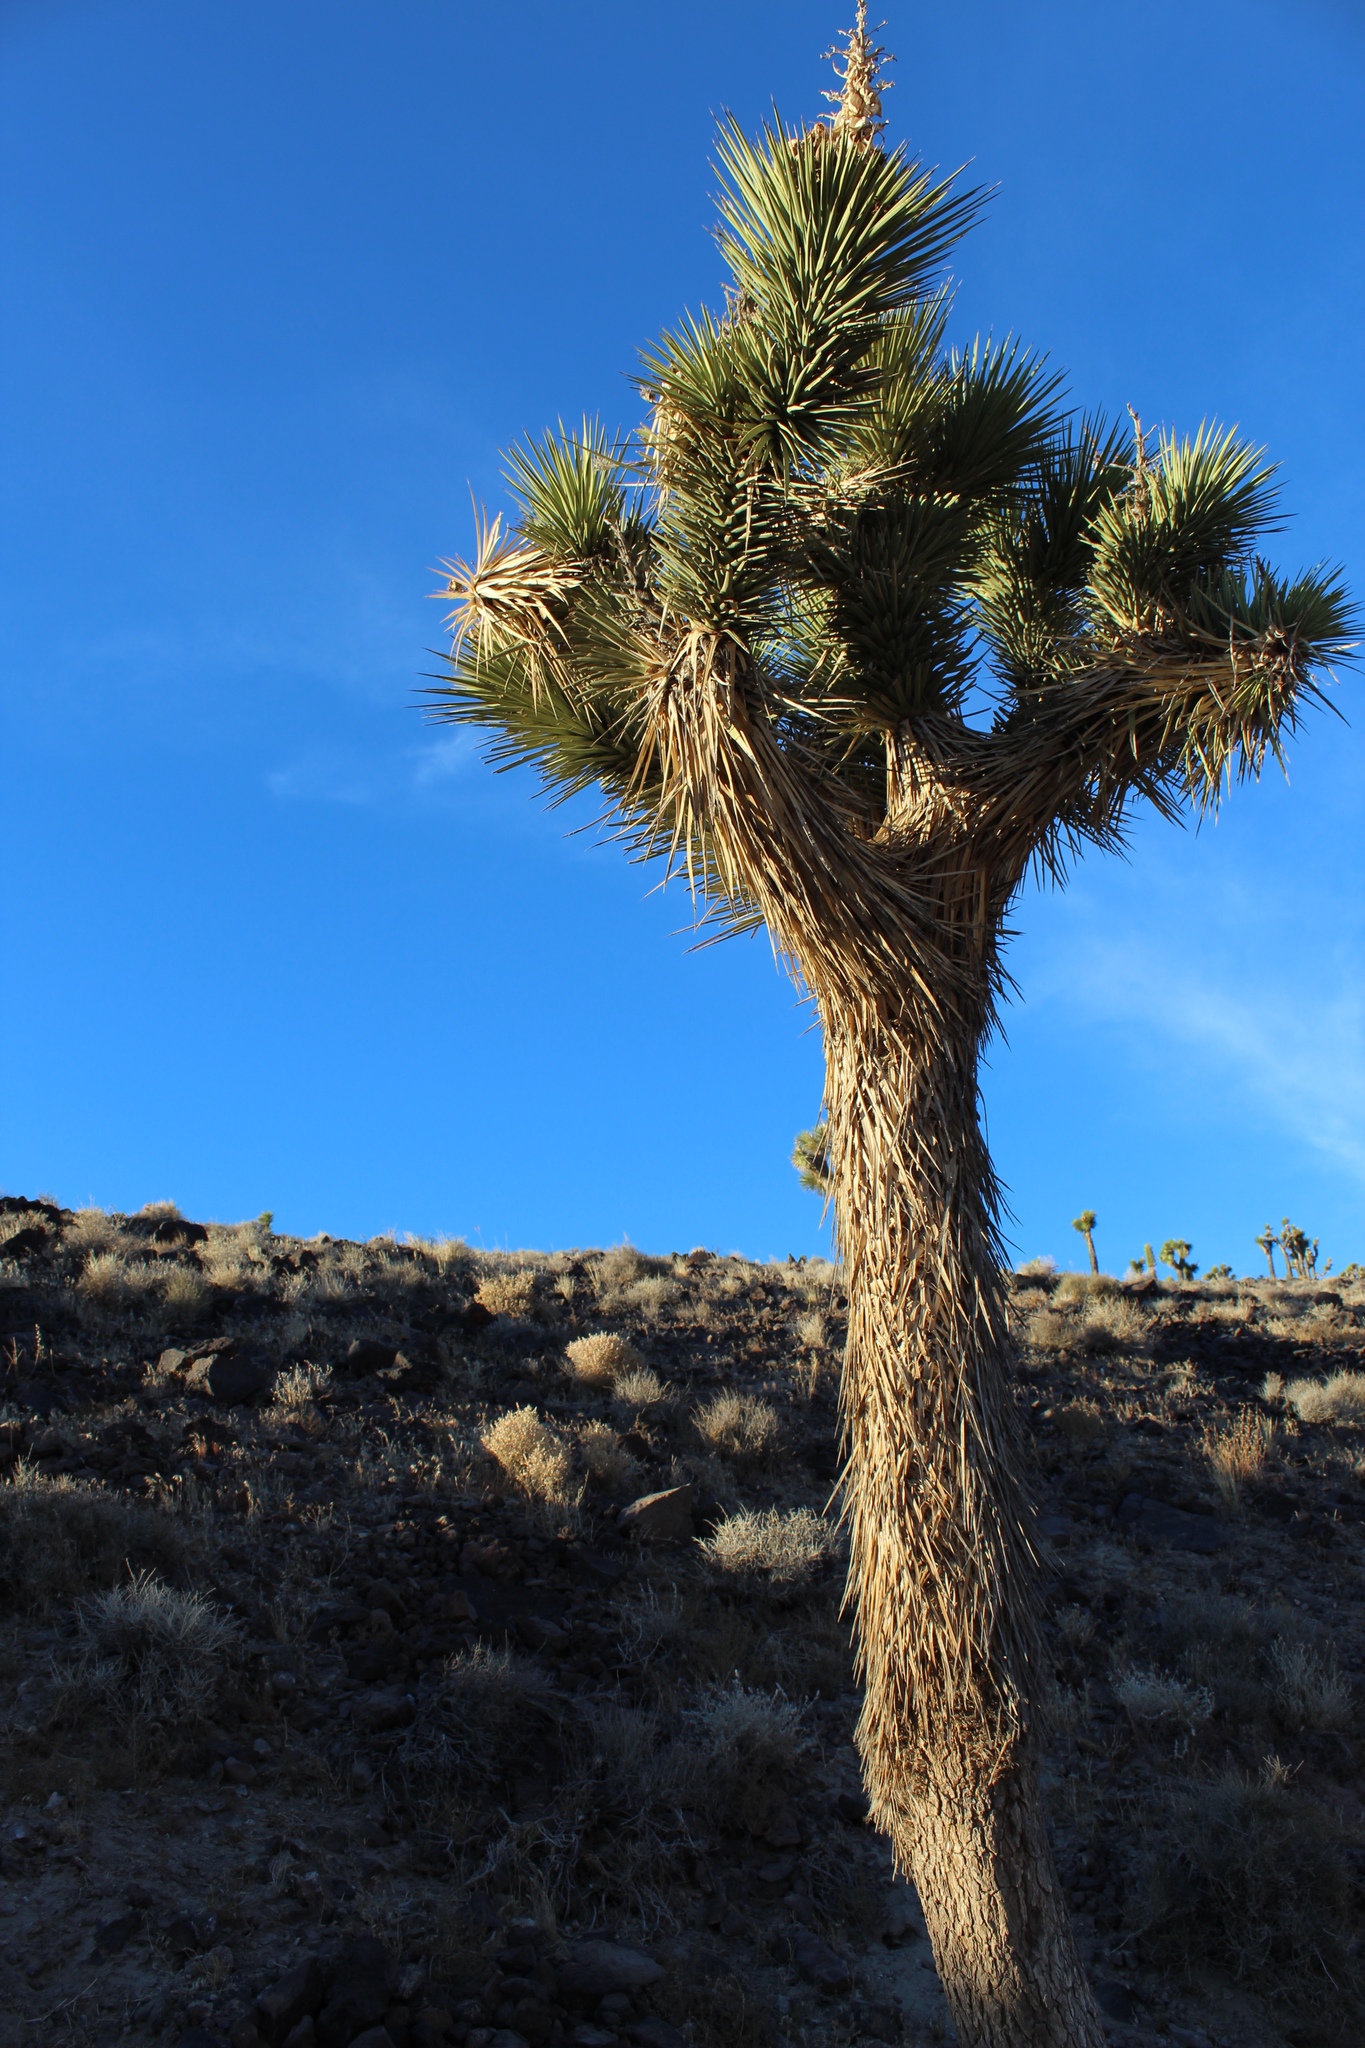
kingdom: Plantae
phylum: Tracheophyta
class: Liliopsida
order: Asparagales
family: Asparagaceae
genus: Yucca
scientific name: Yucca brevifolia
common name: Joshua tree
